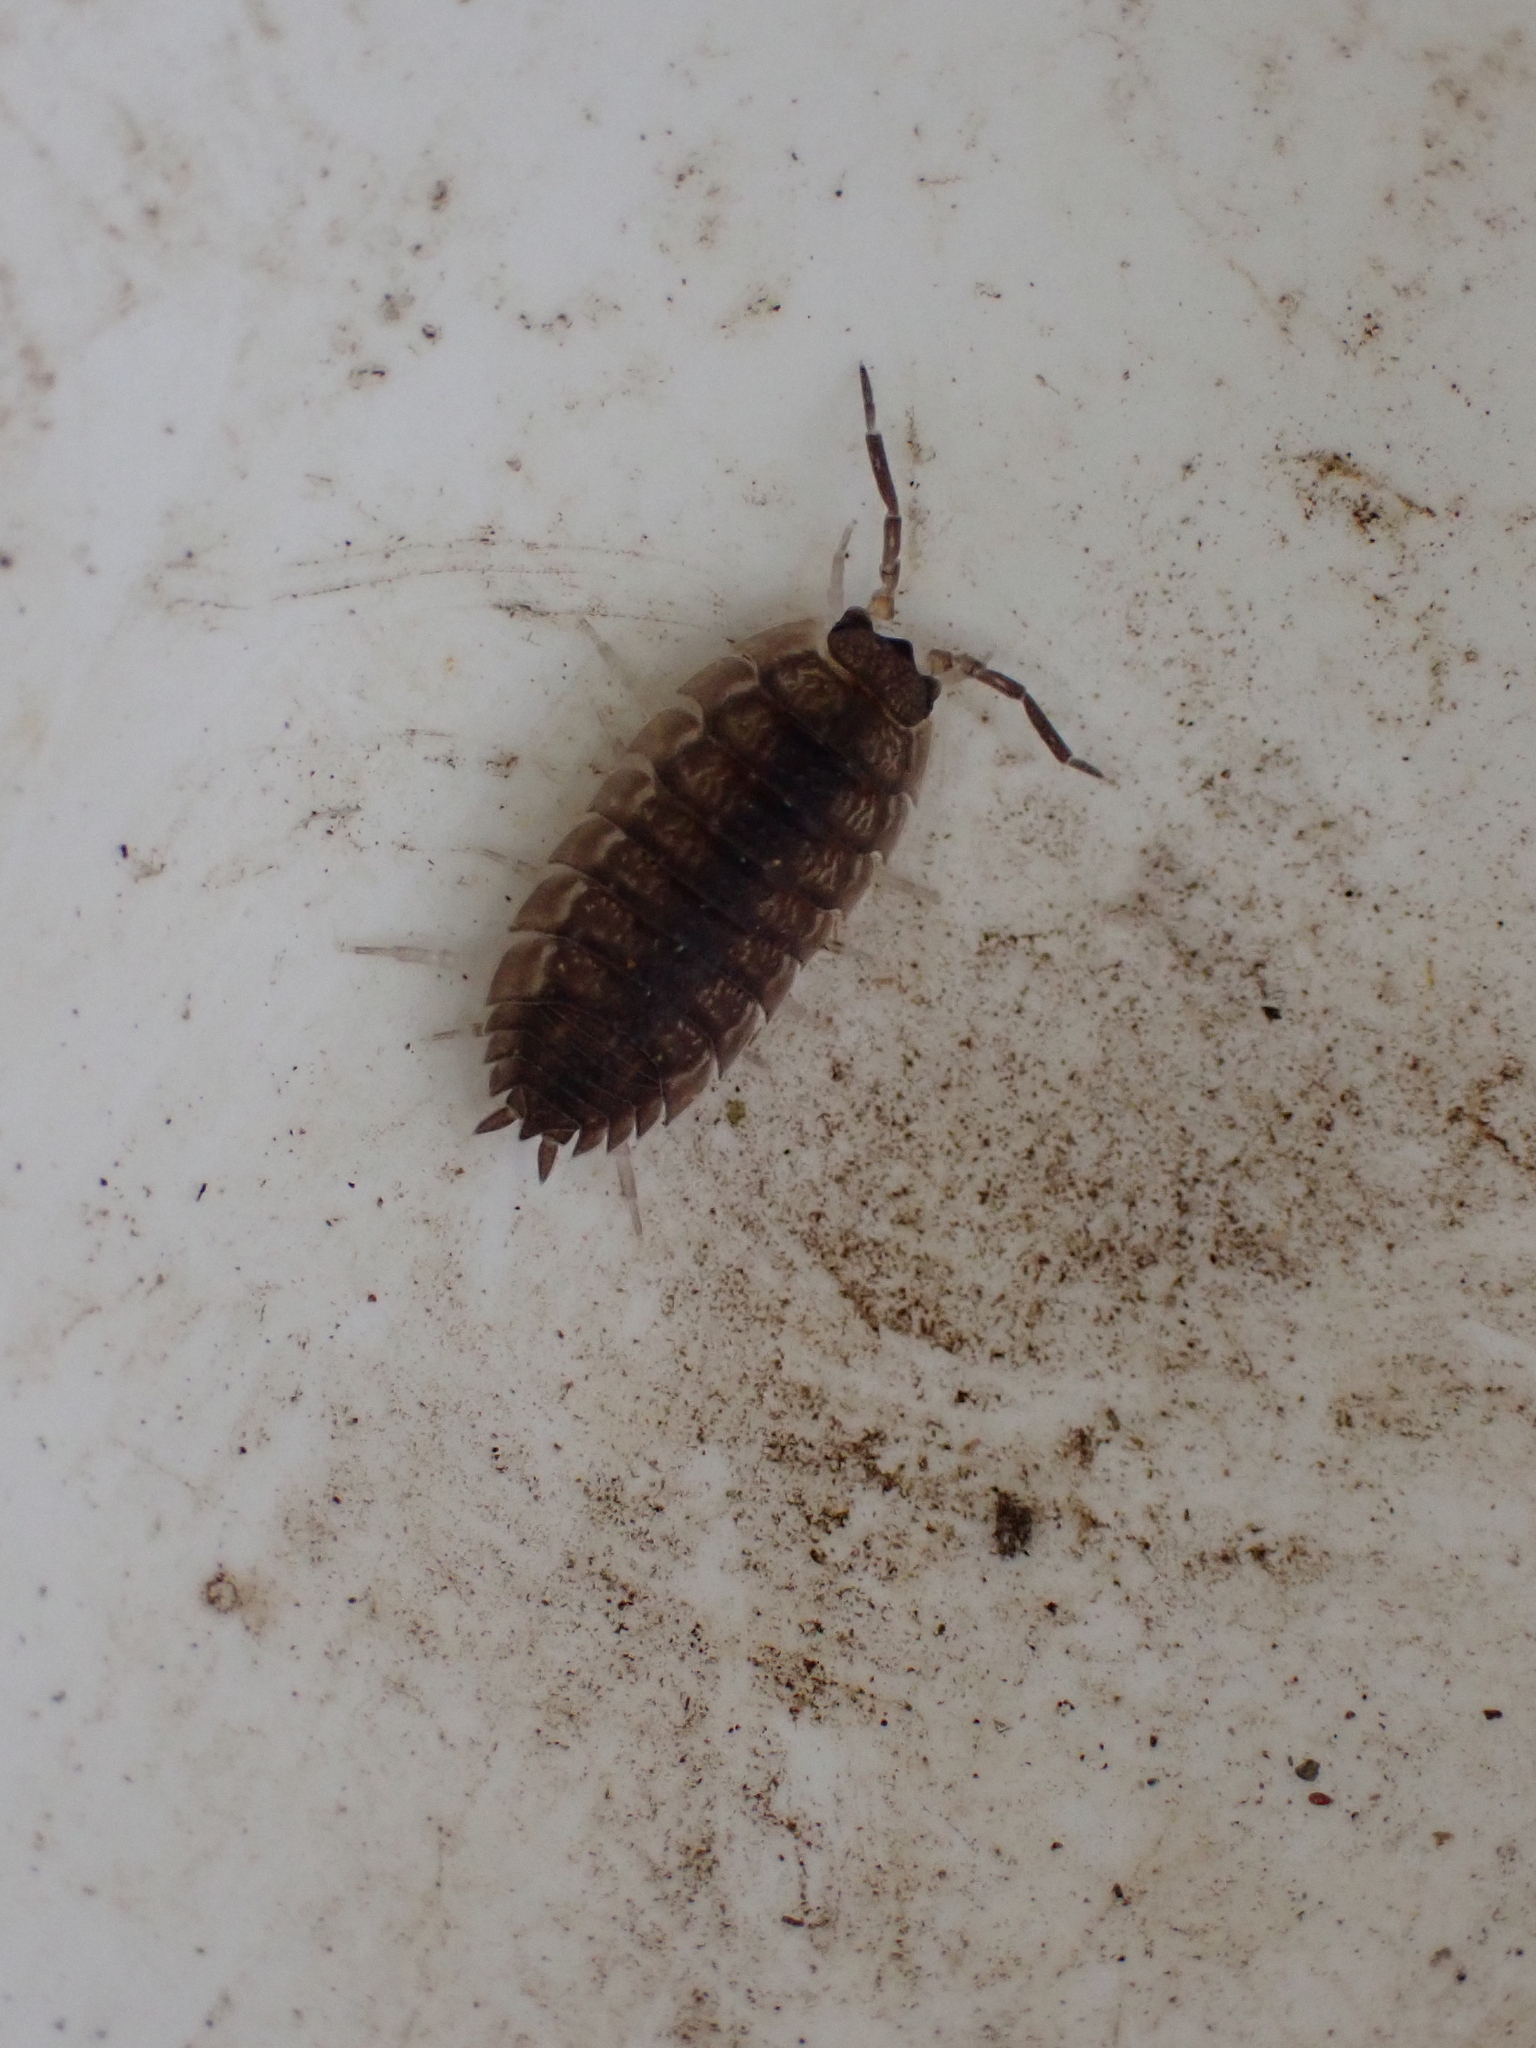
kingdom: Animalia
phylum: Arthropoda
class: Malacostraca
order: Isopoda
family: Porcellionidae
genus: Porcellio
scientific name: Porcellio scaber
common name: Common rough woodlouse
